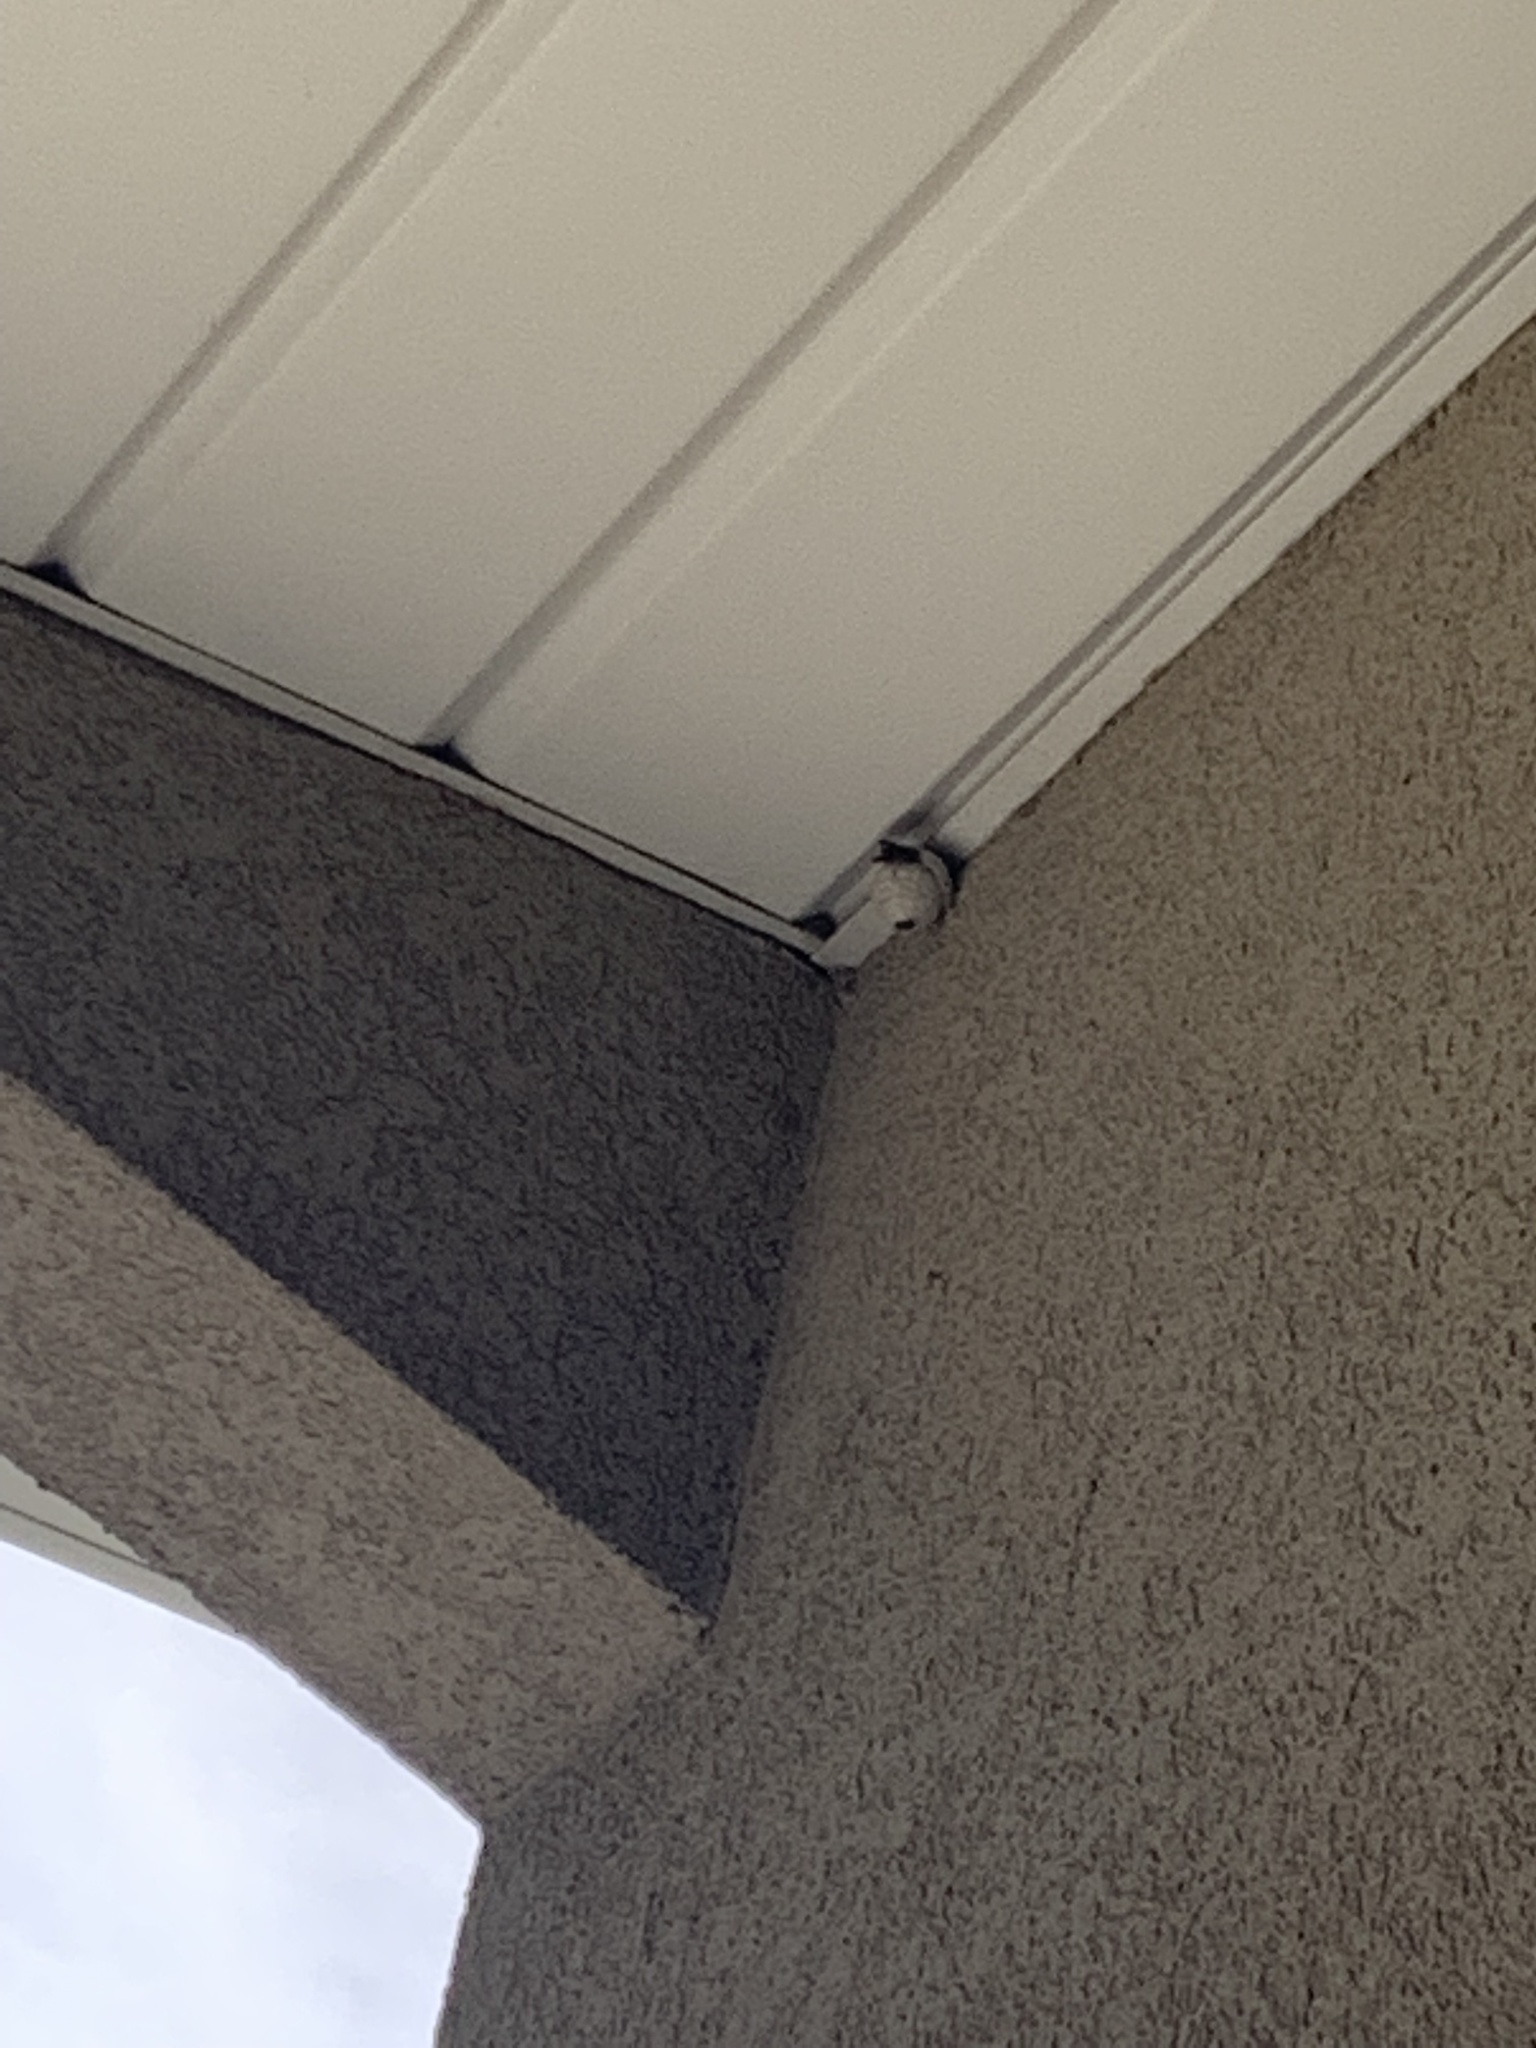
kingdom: Animalia
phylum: Arthropoda
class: Insecta
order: Hymenoptera
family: Vespidae
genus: Dolichovespula
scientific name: Dolichovespula
